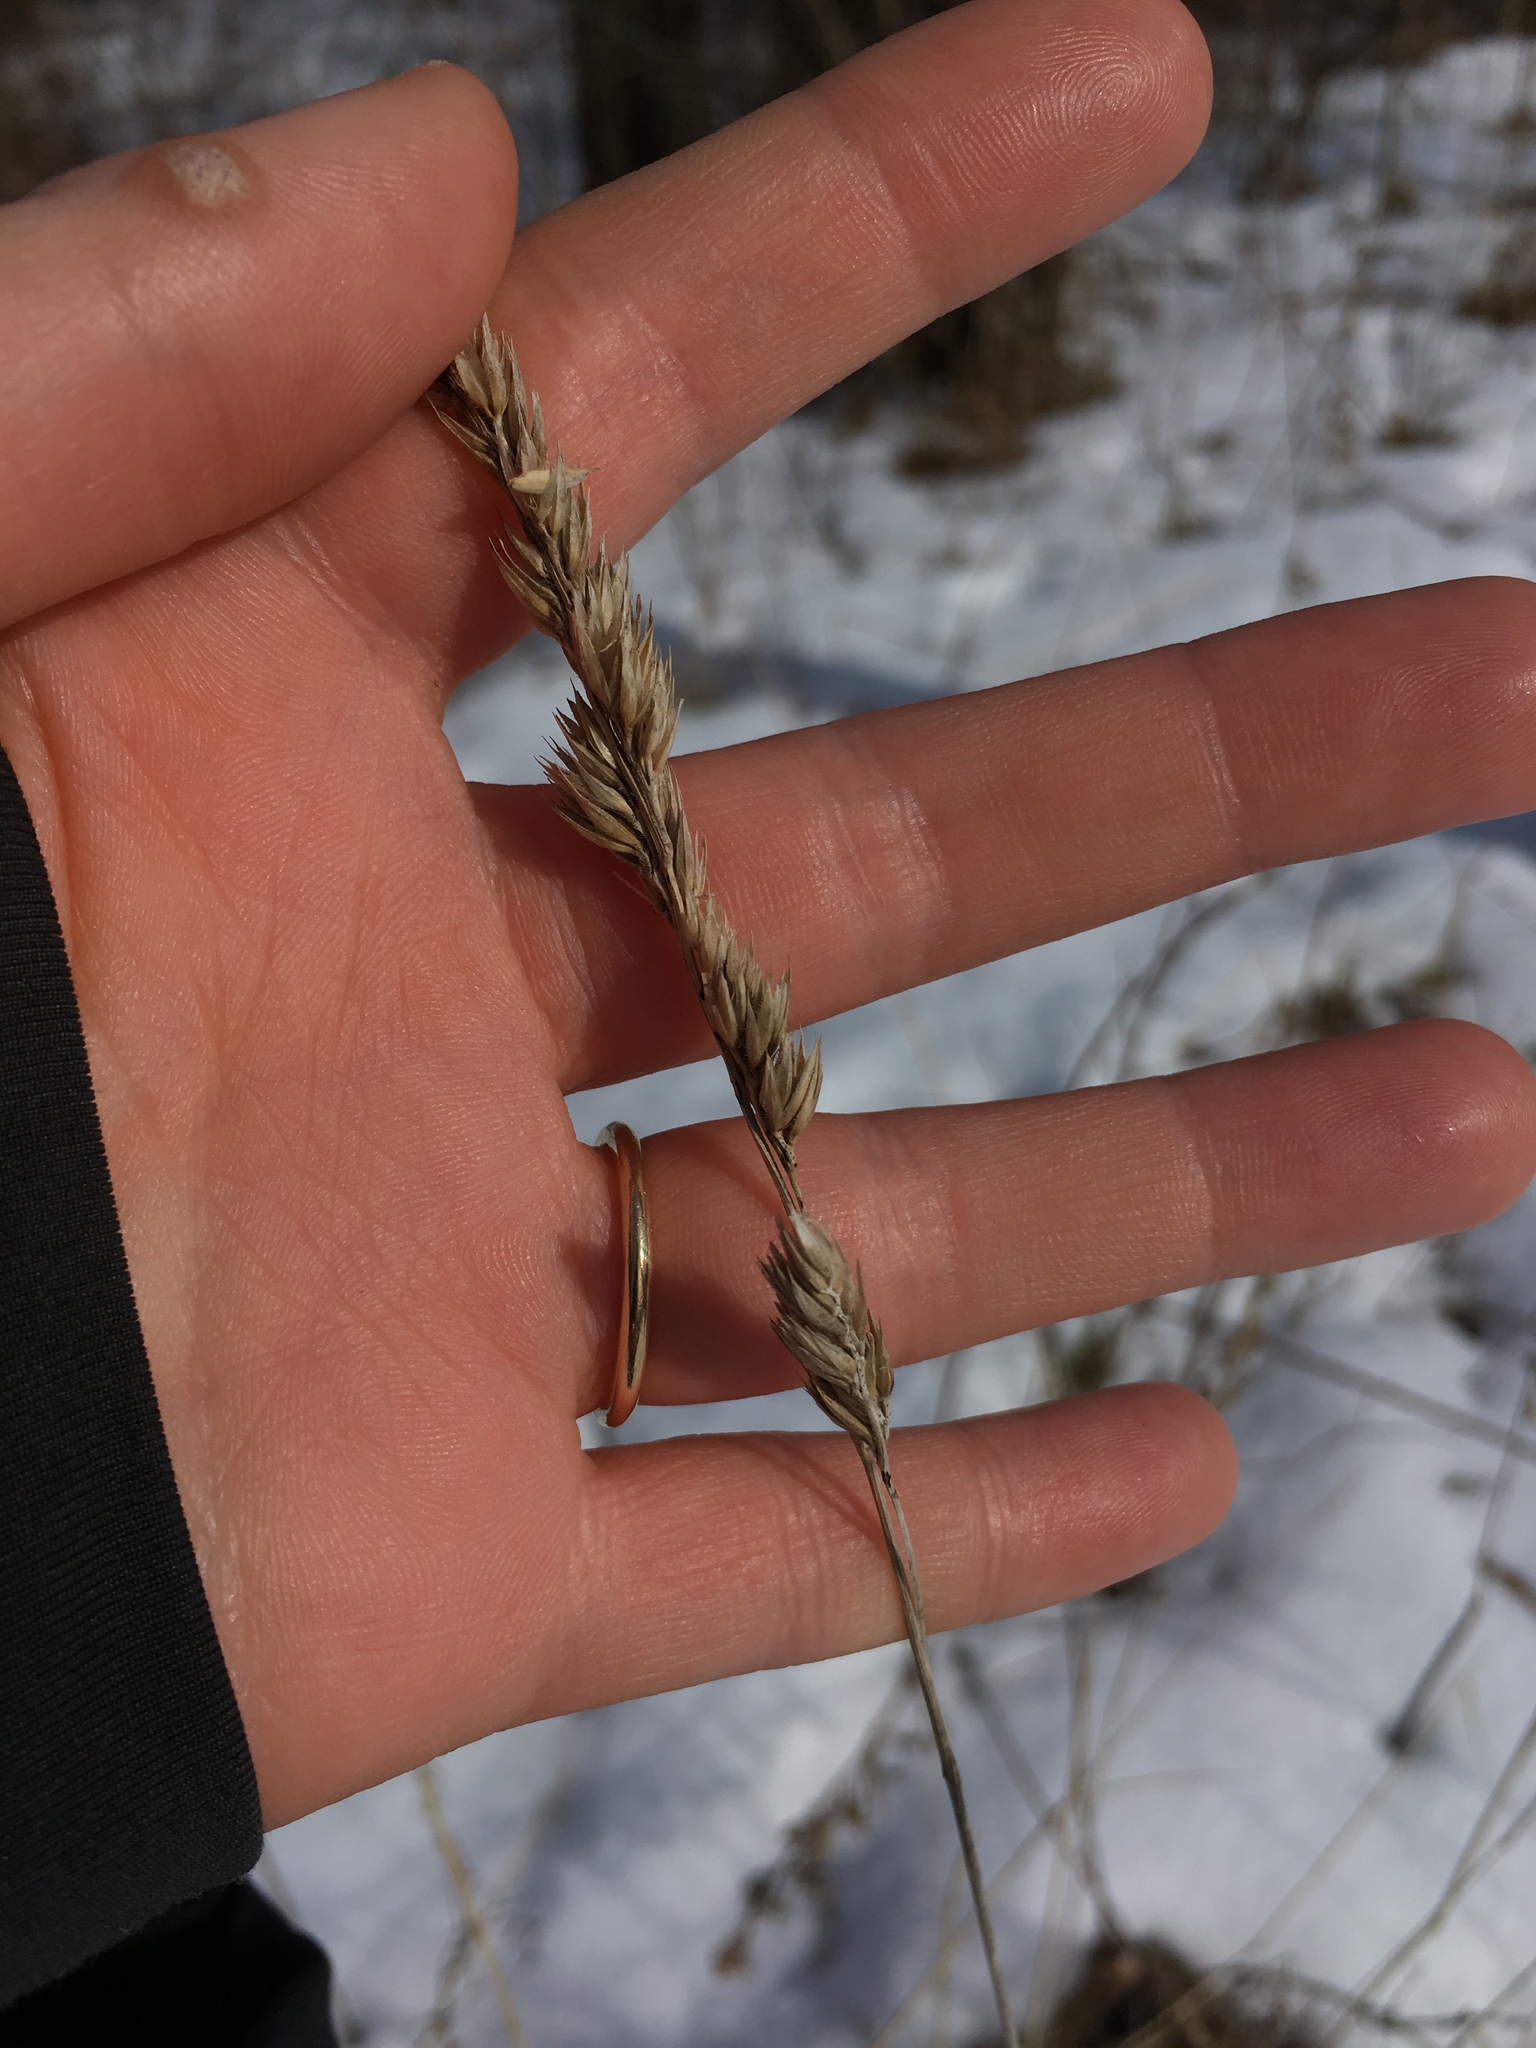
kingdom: Plantae
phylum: Tracheophyta
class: Liliopsida
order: Poales
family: Poaceae
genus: Dactylis
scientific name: Dactylis glomerata
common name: Orchardgrass
